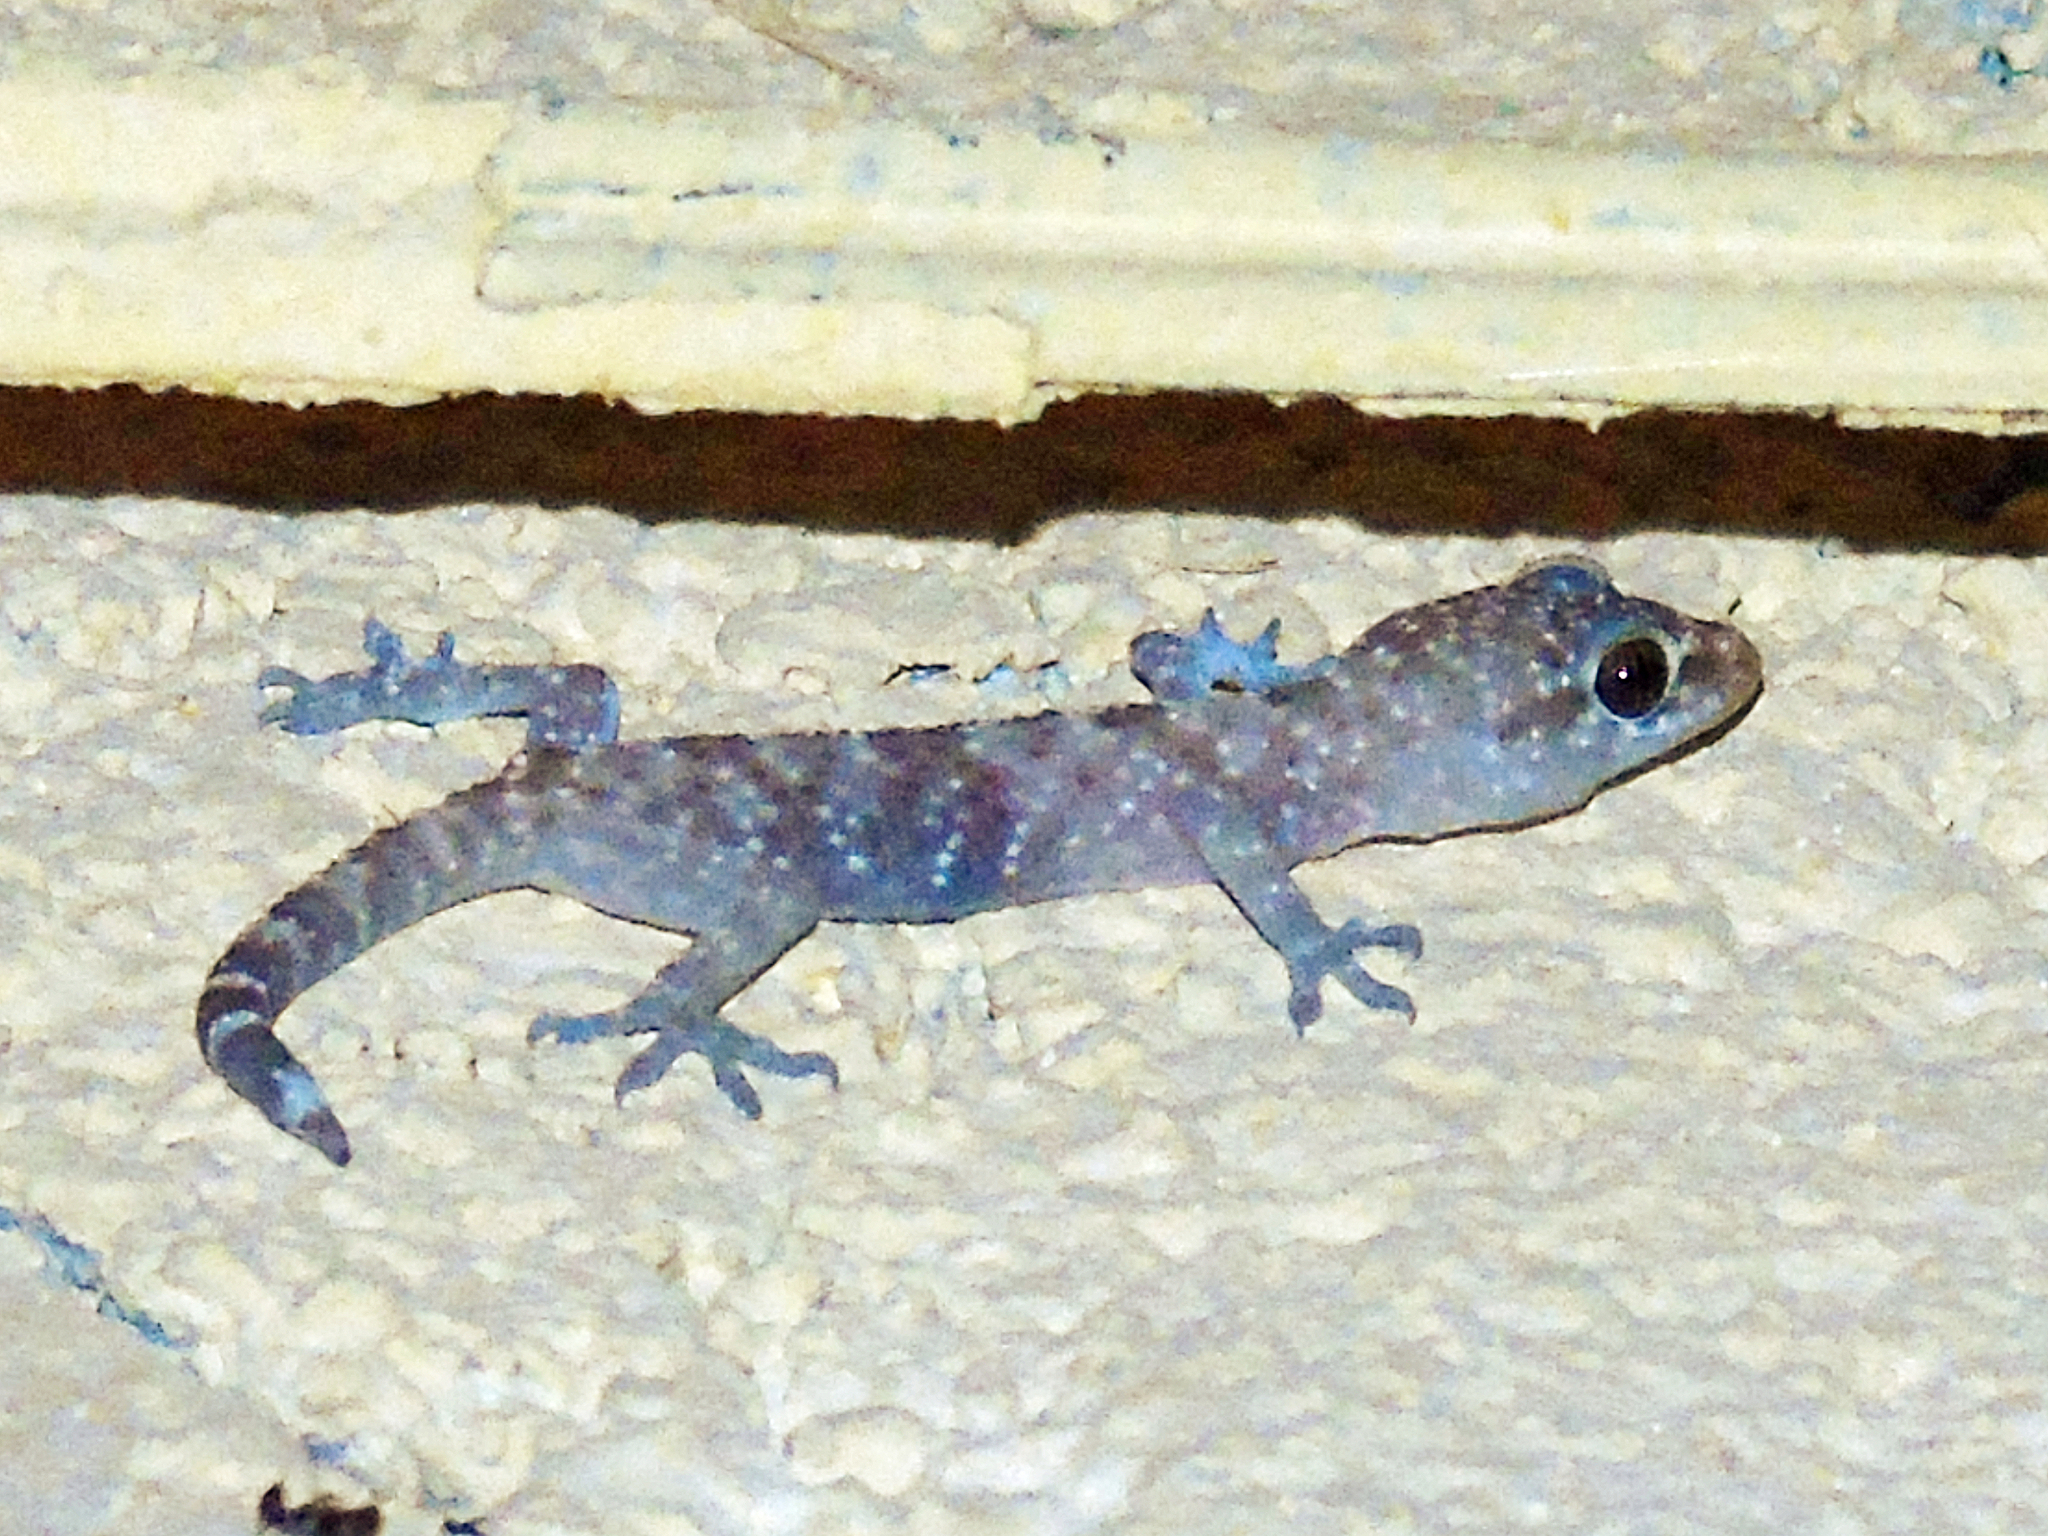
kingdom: Animalia
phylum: Chordata
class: Squamata
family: Gekkonidae
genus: Hemidactylus
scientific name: Hemidactylus turcicus
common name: Turkish gecko
